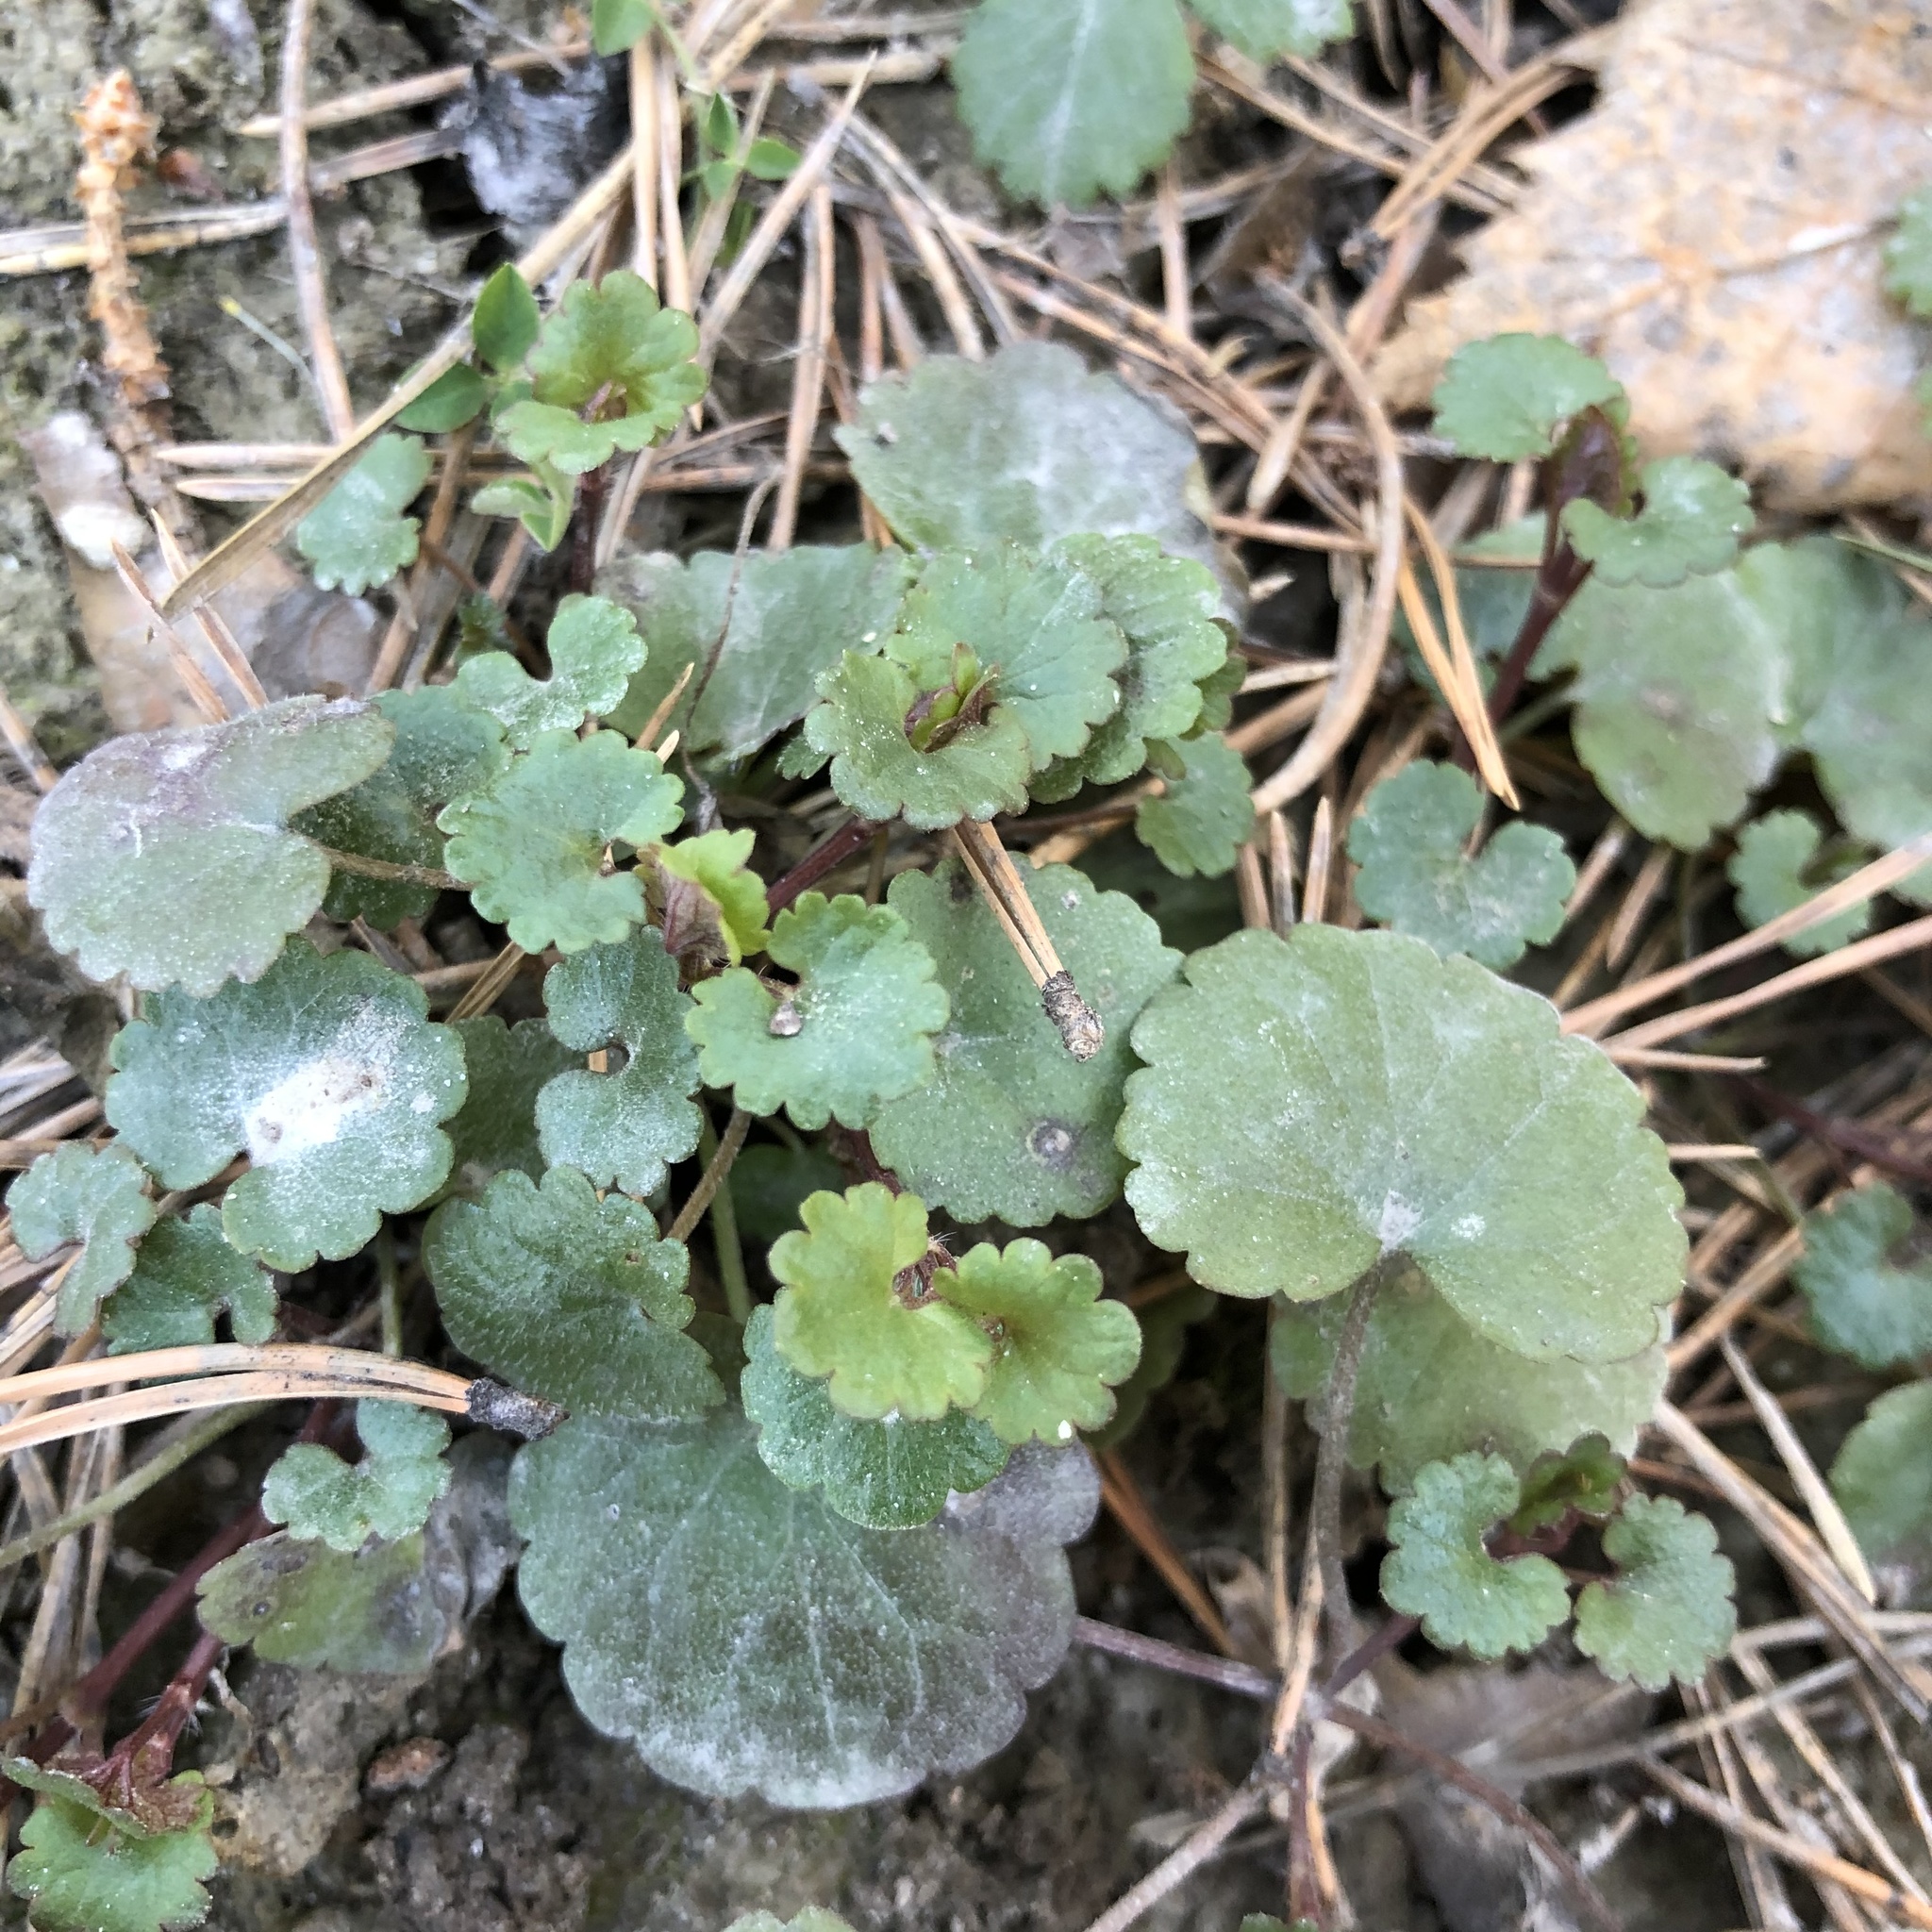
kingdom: Plantae
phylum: Tracheophyta
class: Magnoliopsida
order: Lamiales
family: Lamiaceae
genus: Glechoma
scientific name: Glechoma hederacea
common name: Ground ivy
